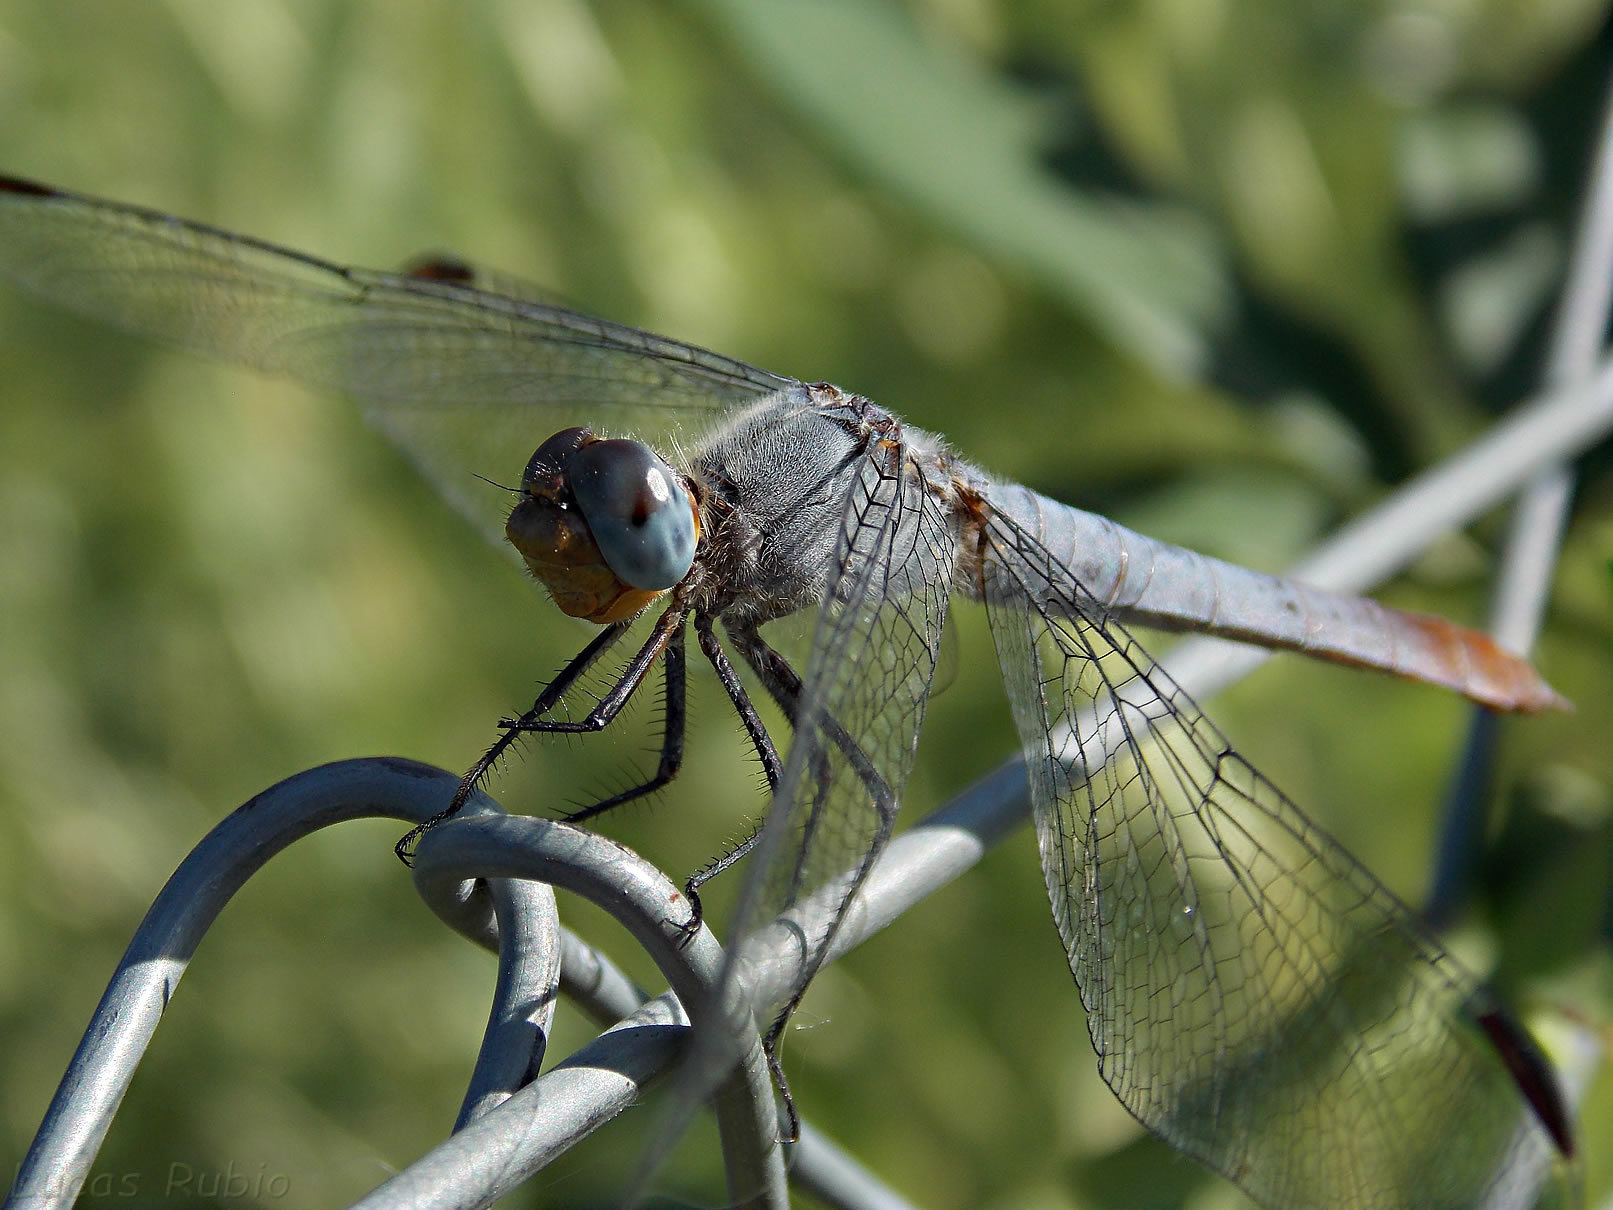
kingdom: Animalia
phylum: Arthropoda
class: Insecta
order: Odonata
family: Libellulidae
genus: Planiplax
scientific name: Planiplax erythropyga
